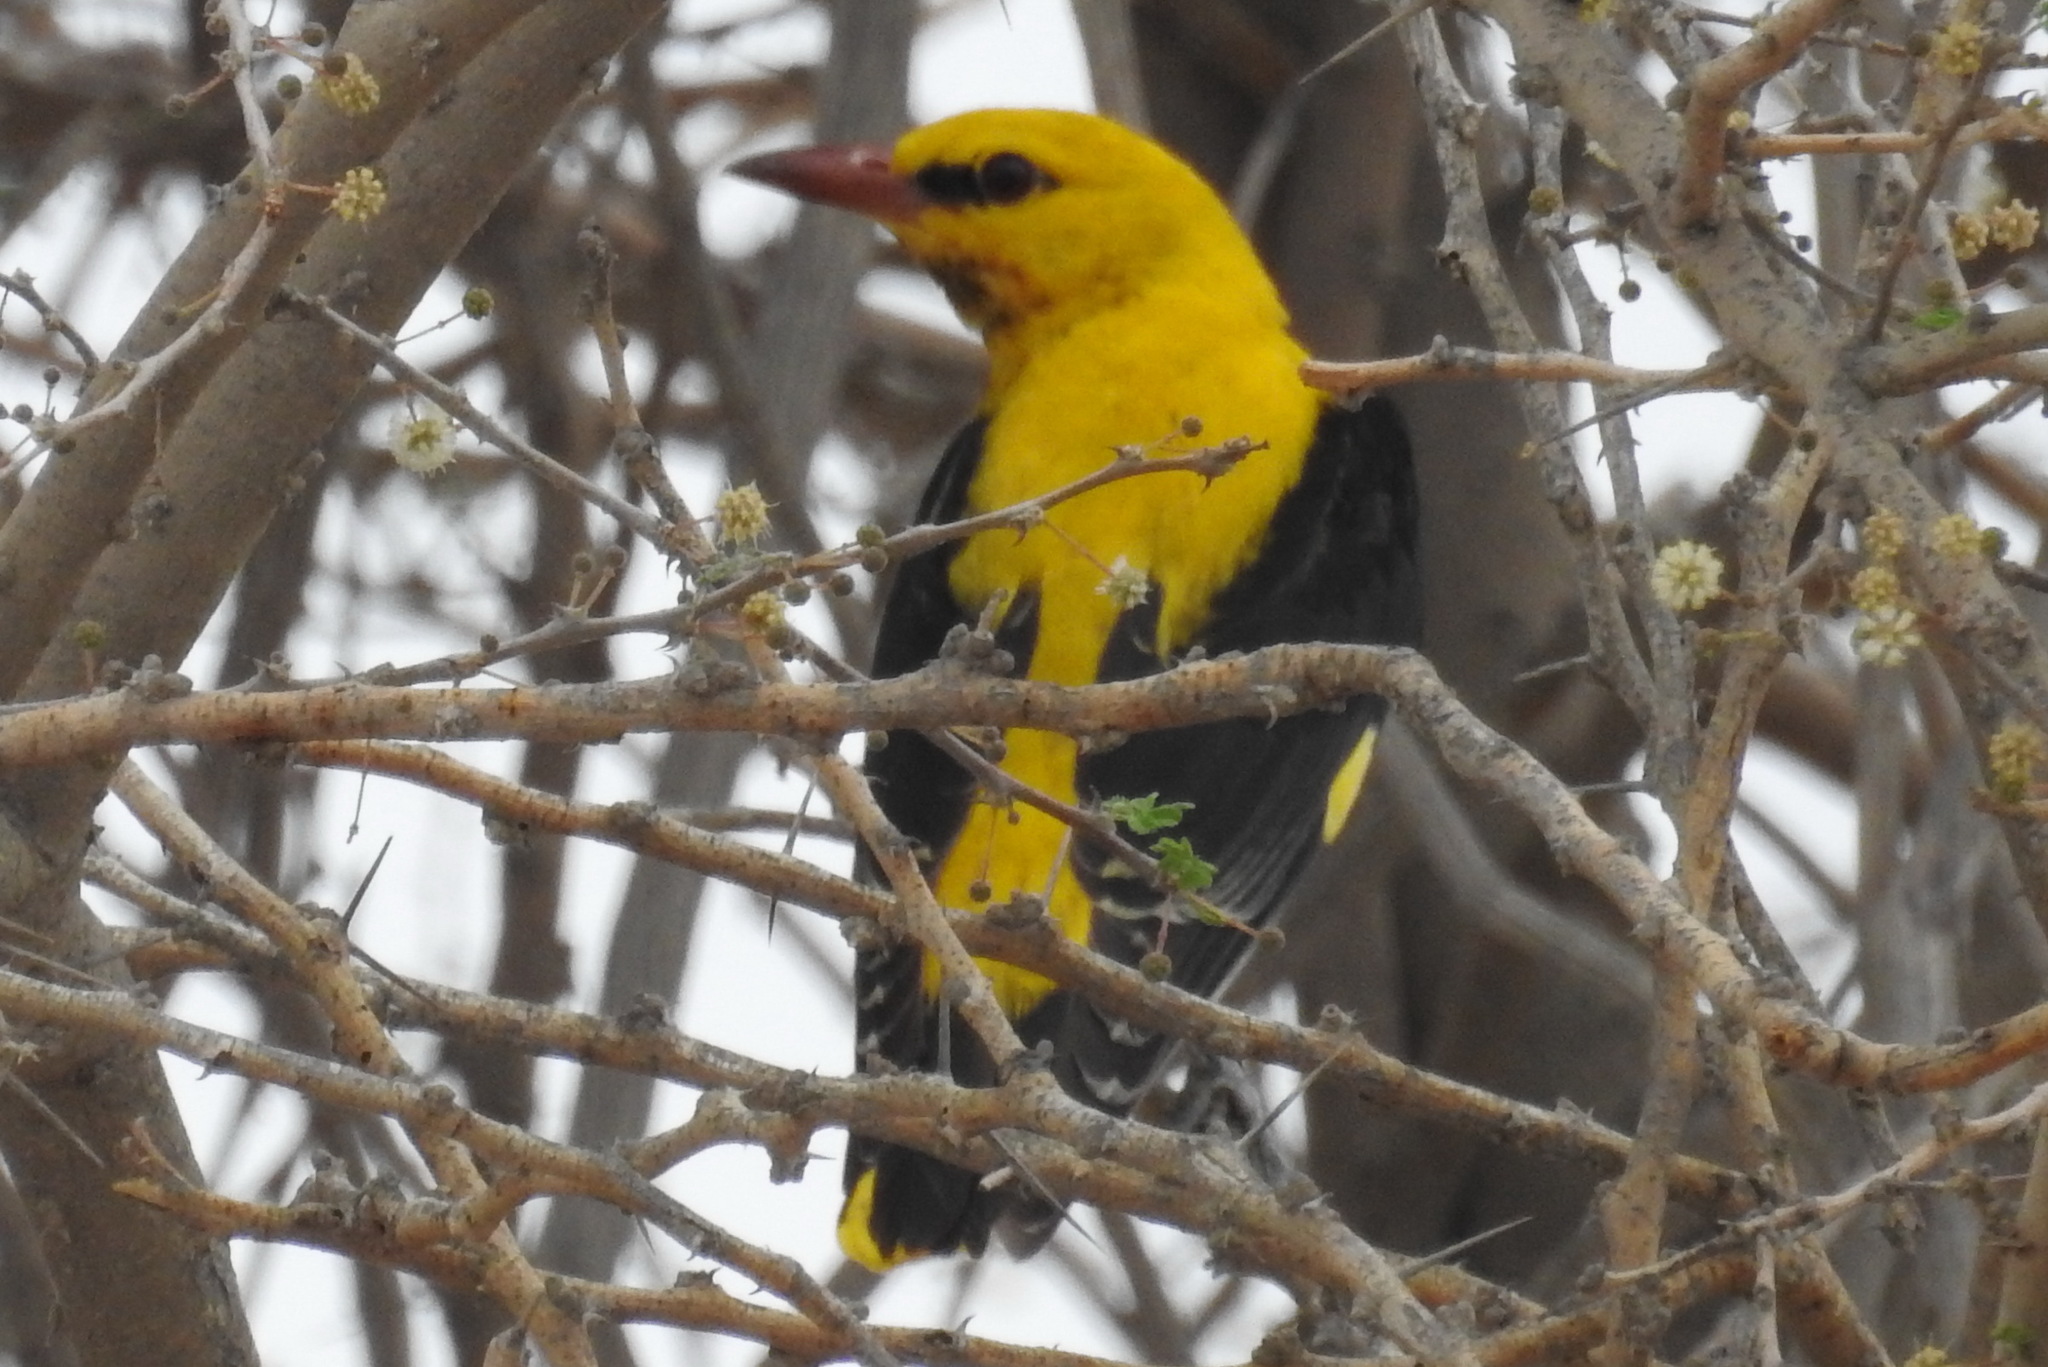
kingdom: Animalia
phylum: Chordata
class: Aves
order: Passeriformes
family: Oriolidae
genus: Oriolus
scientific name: Oriolus oriolus
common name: Eurasian golden oriole
